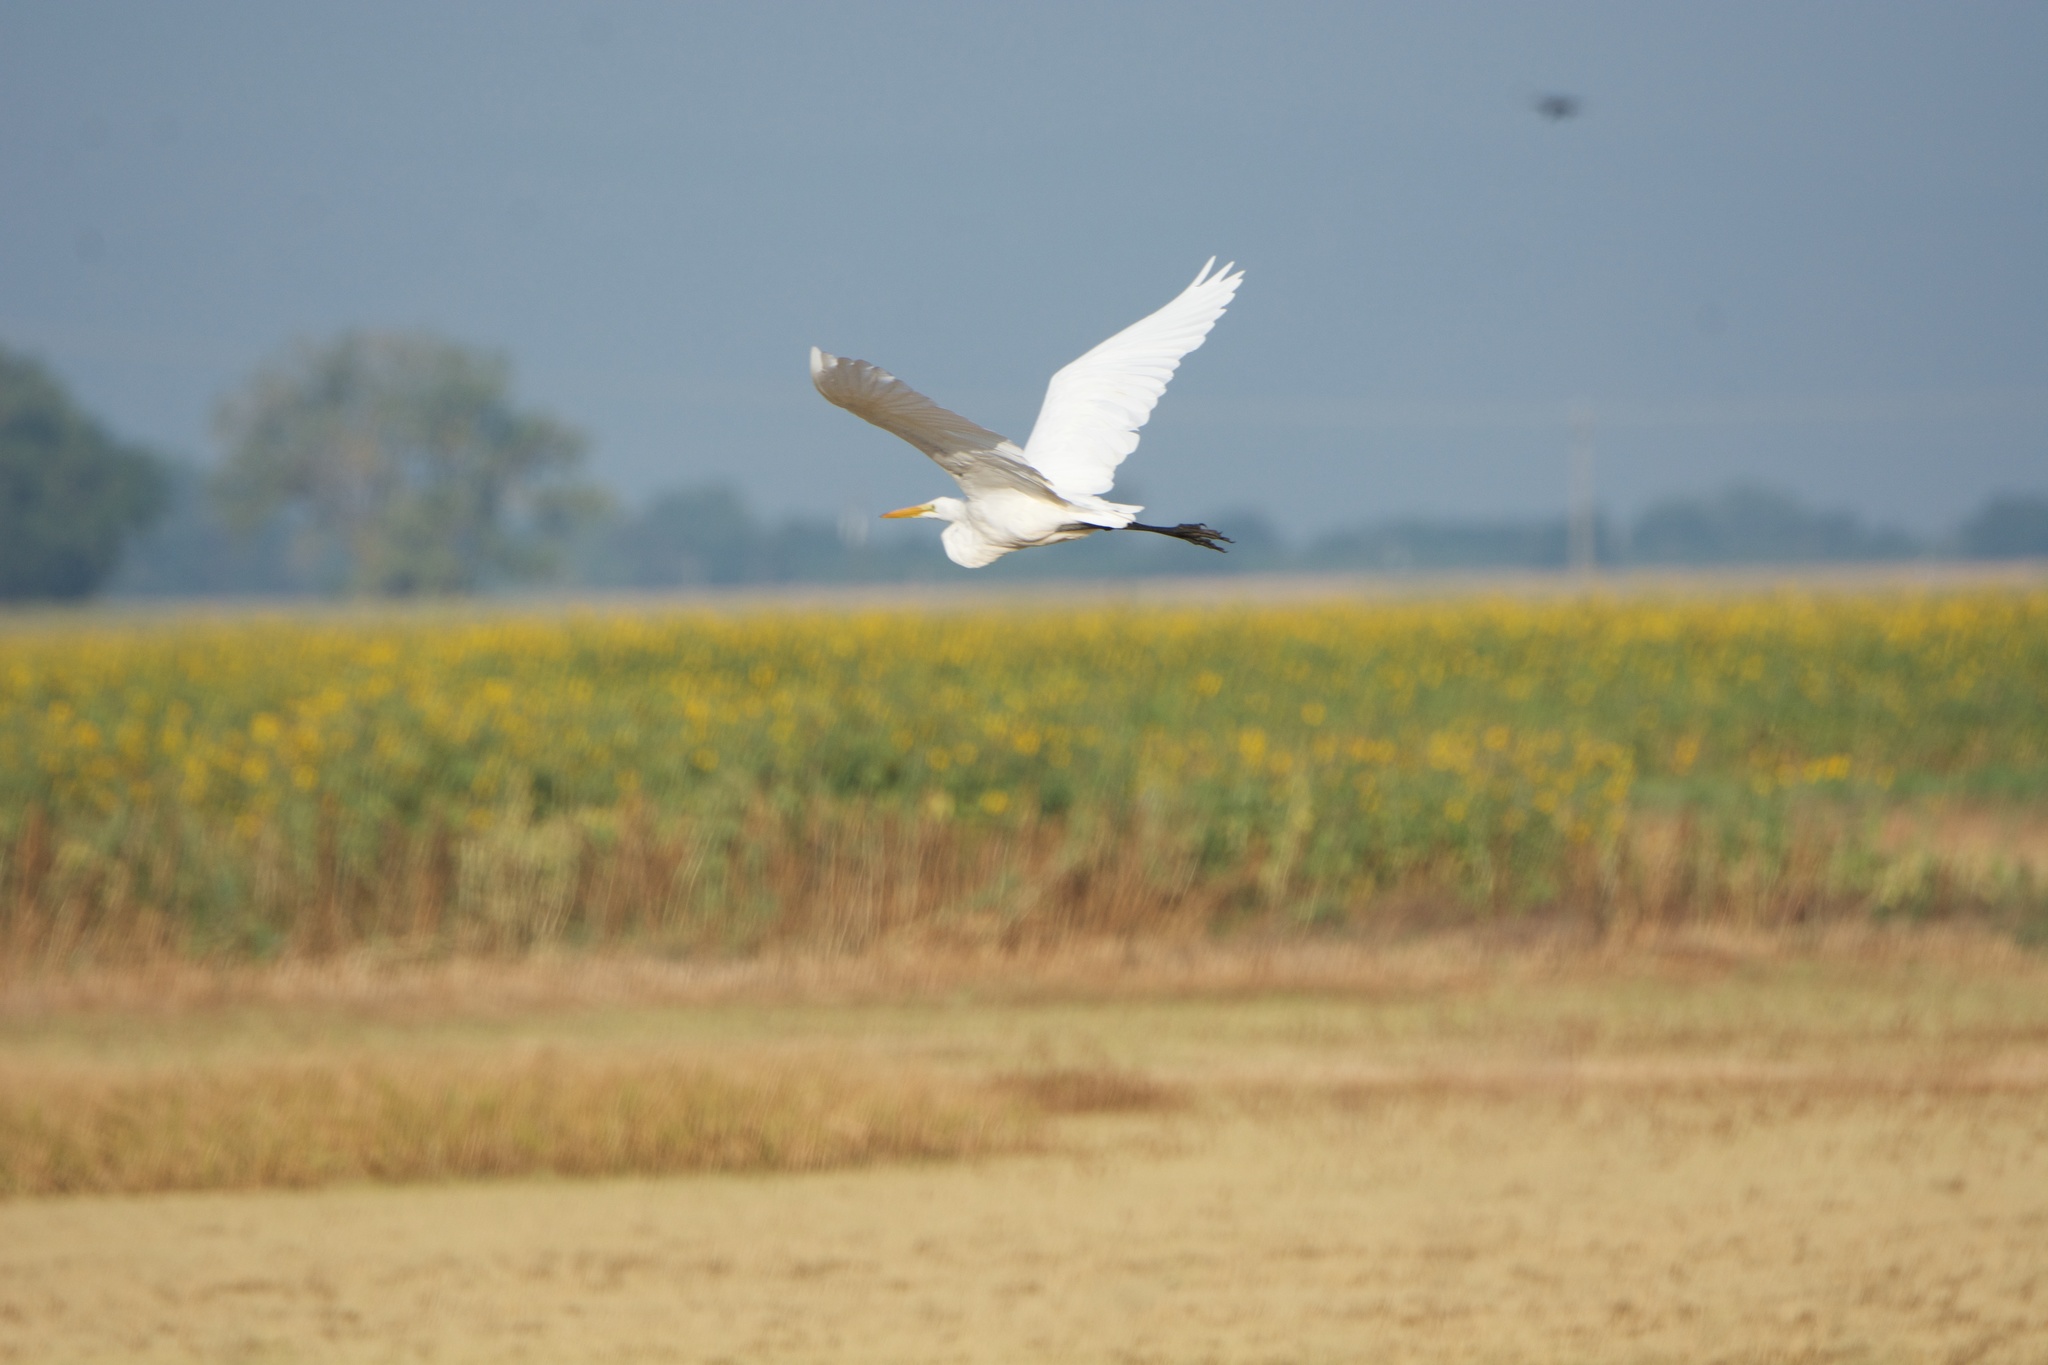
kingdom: Animalia
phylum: Chordata
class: Aves
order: Pelecaniformes
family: Ardeidae
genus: Ardea
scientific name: Ardea alba
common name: Great egret
